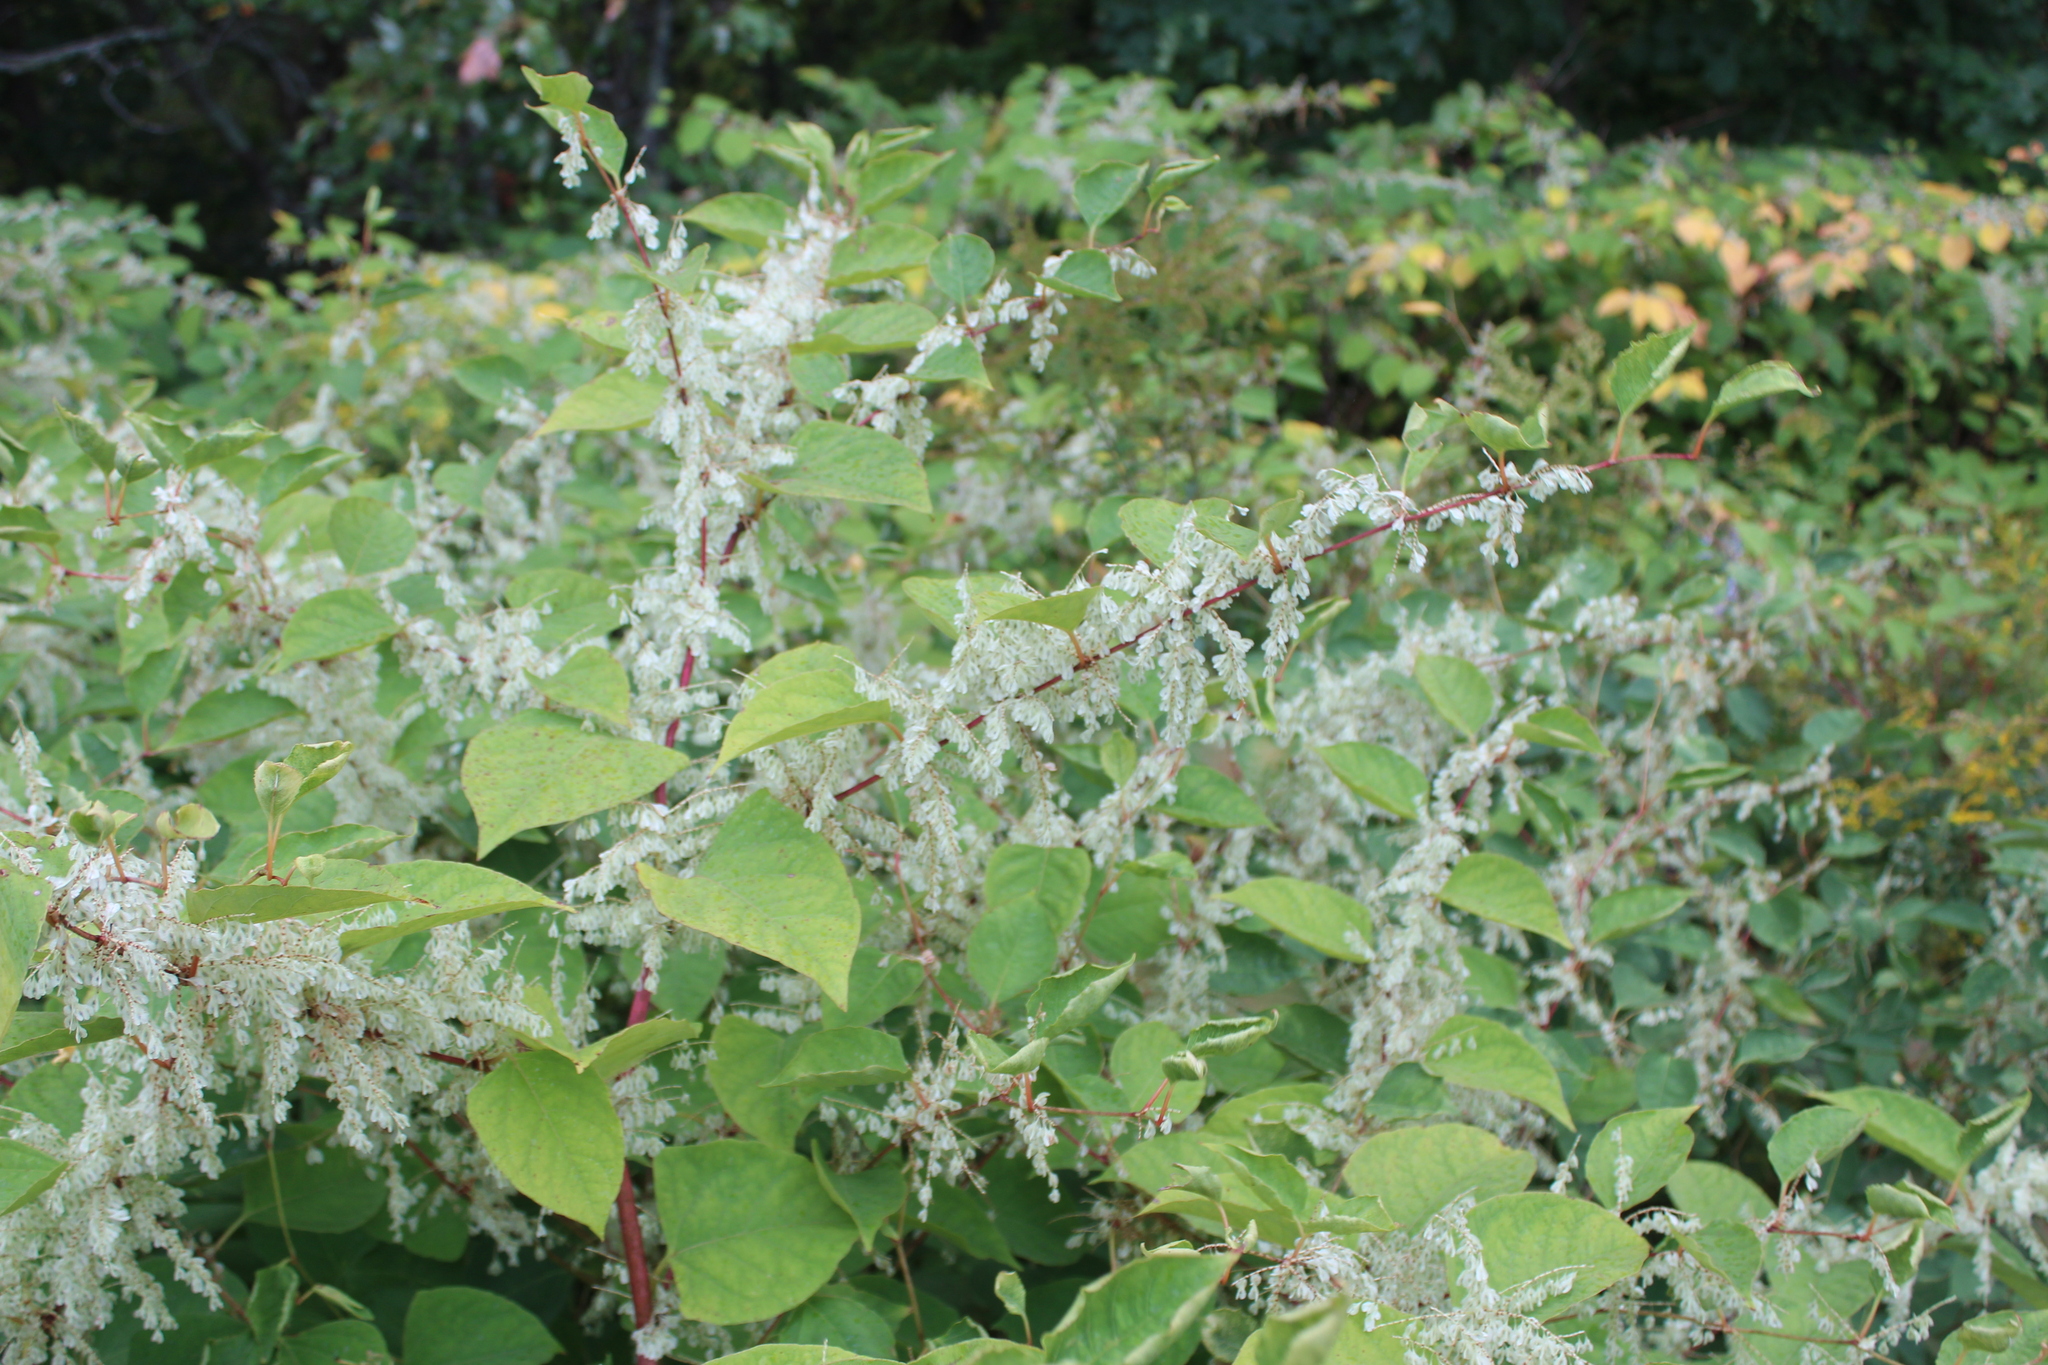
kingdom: Plantae
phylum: Tracheophyta
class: Magnoliopsida
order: Caryophyllales
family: Polygonaceae
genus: Reynoutria
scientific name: Reynoutria japonica
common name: Japanese knotweed
